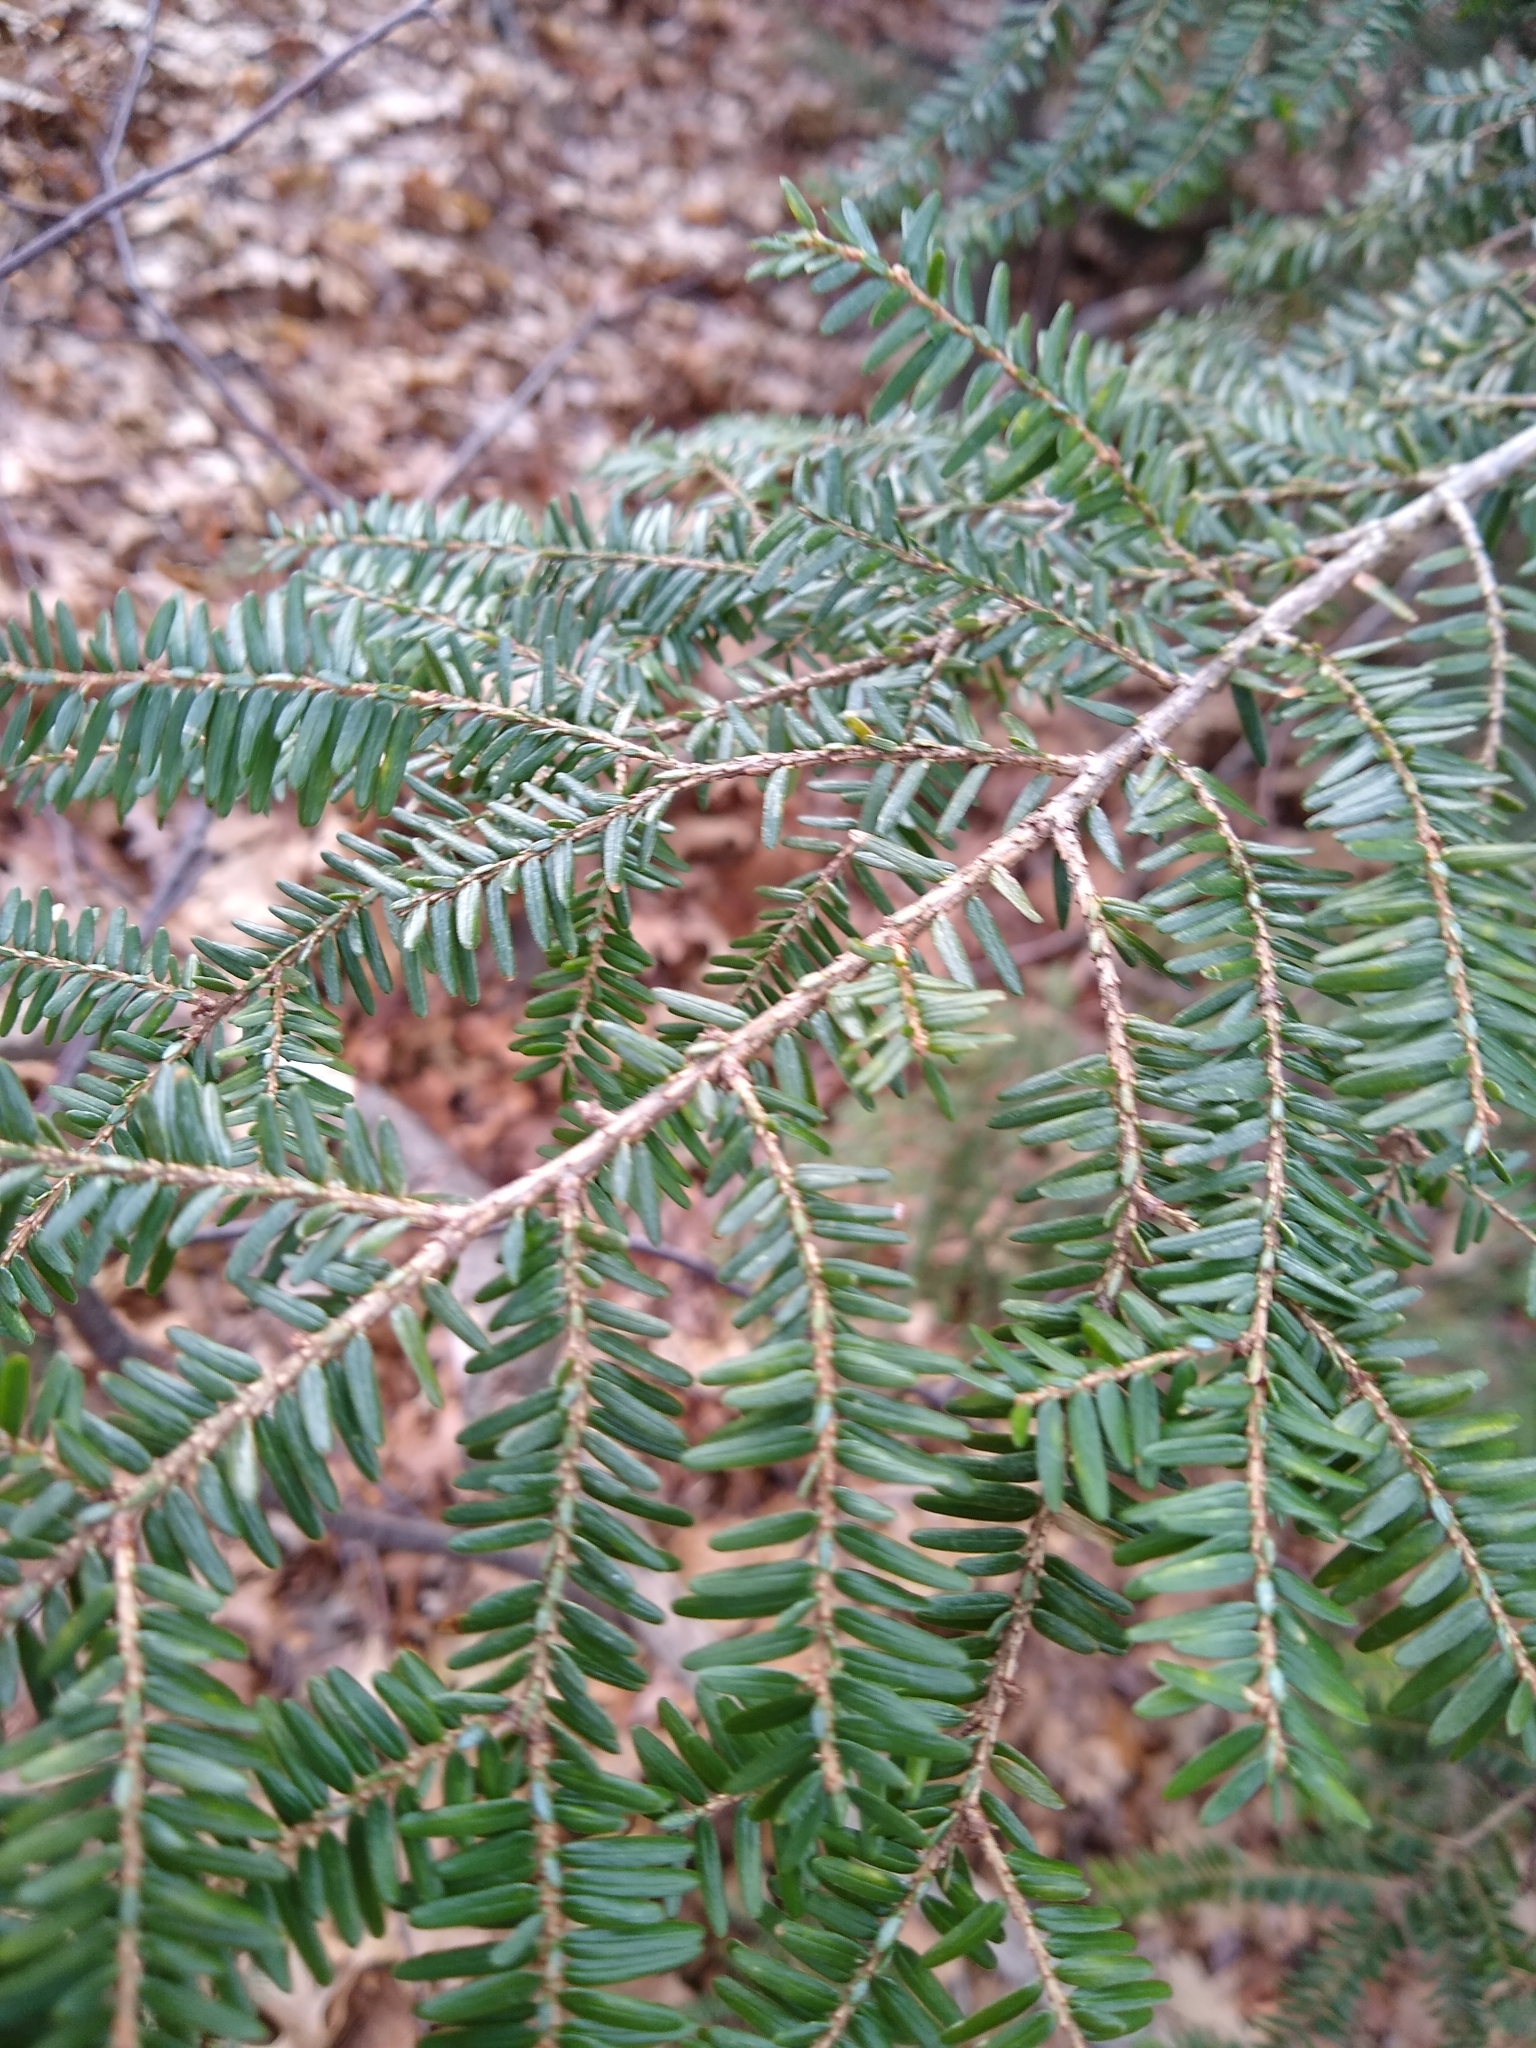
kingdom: Plantae
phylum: Tracheophyta
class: Pinopsida
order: Pinales
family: Pinaceae
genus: Tsuga
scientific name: Tsuga canadensis
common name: Eastern hemlock
